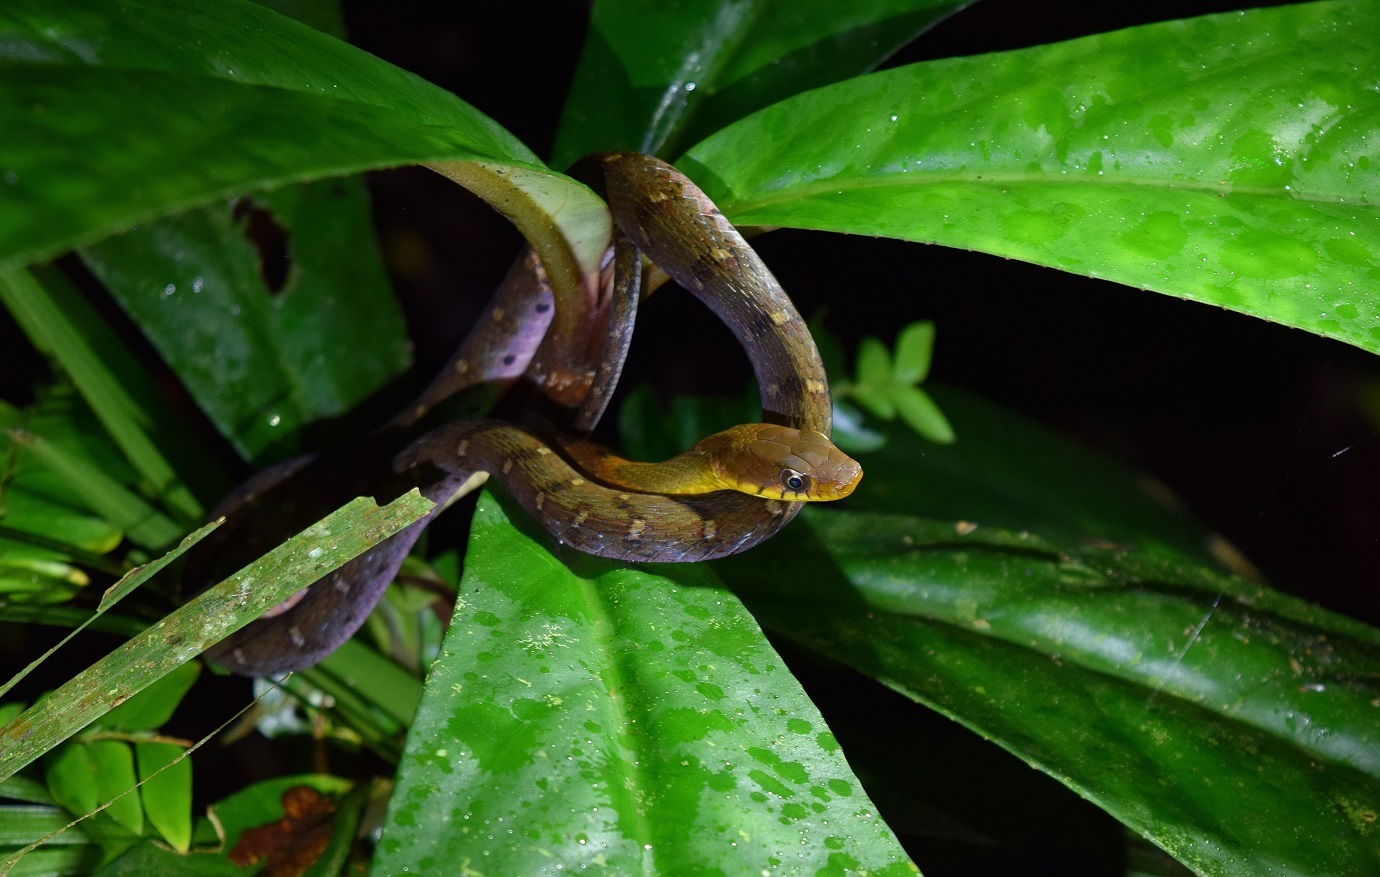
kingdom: Animalia
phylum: Chordata
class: Squamata
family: Colubridae
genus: Rhabdophis
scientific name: Rhabdophis chrysargos
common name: Specklebelly keelback
